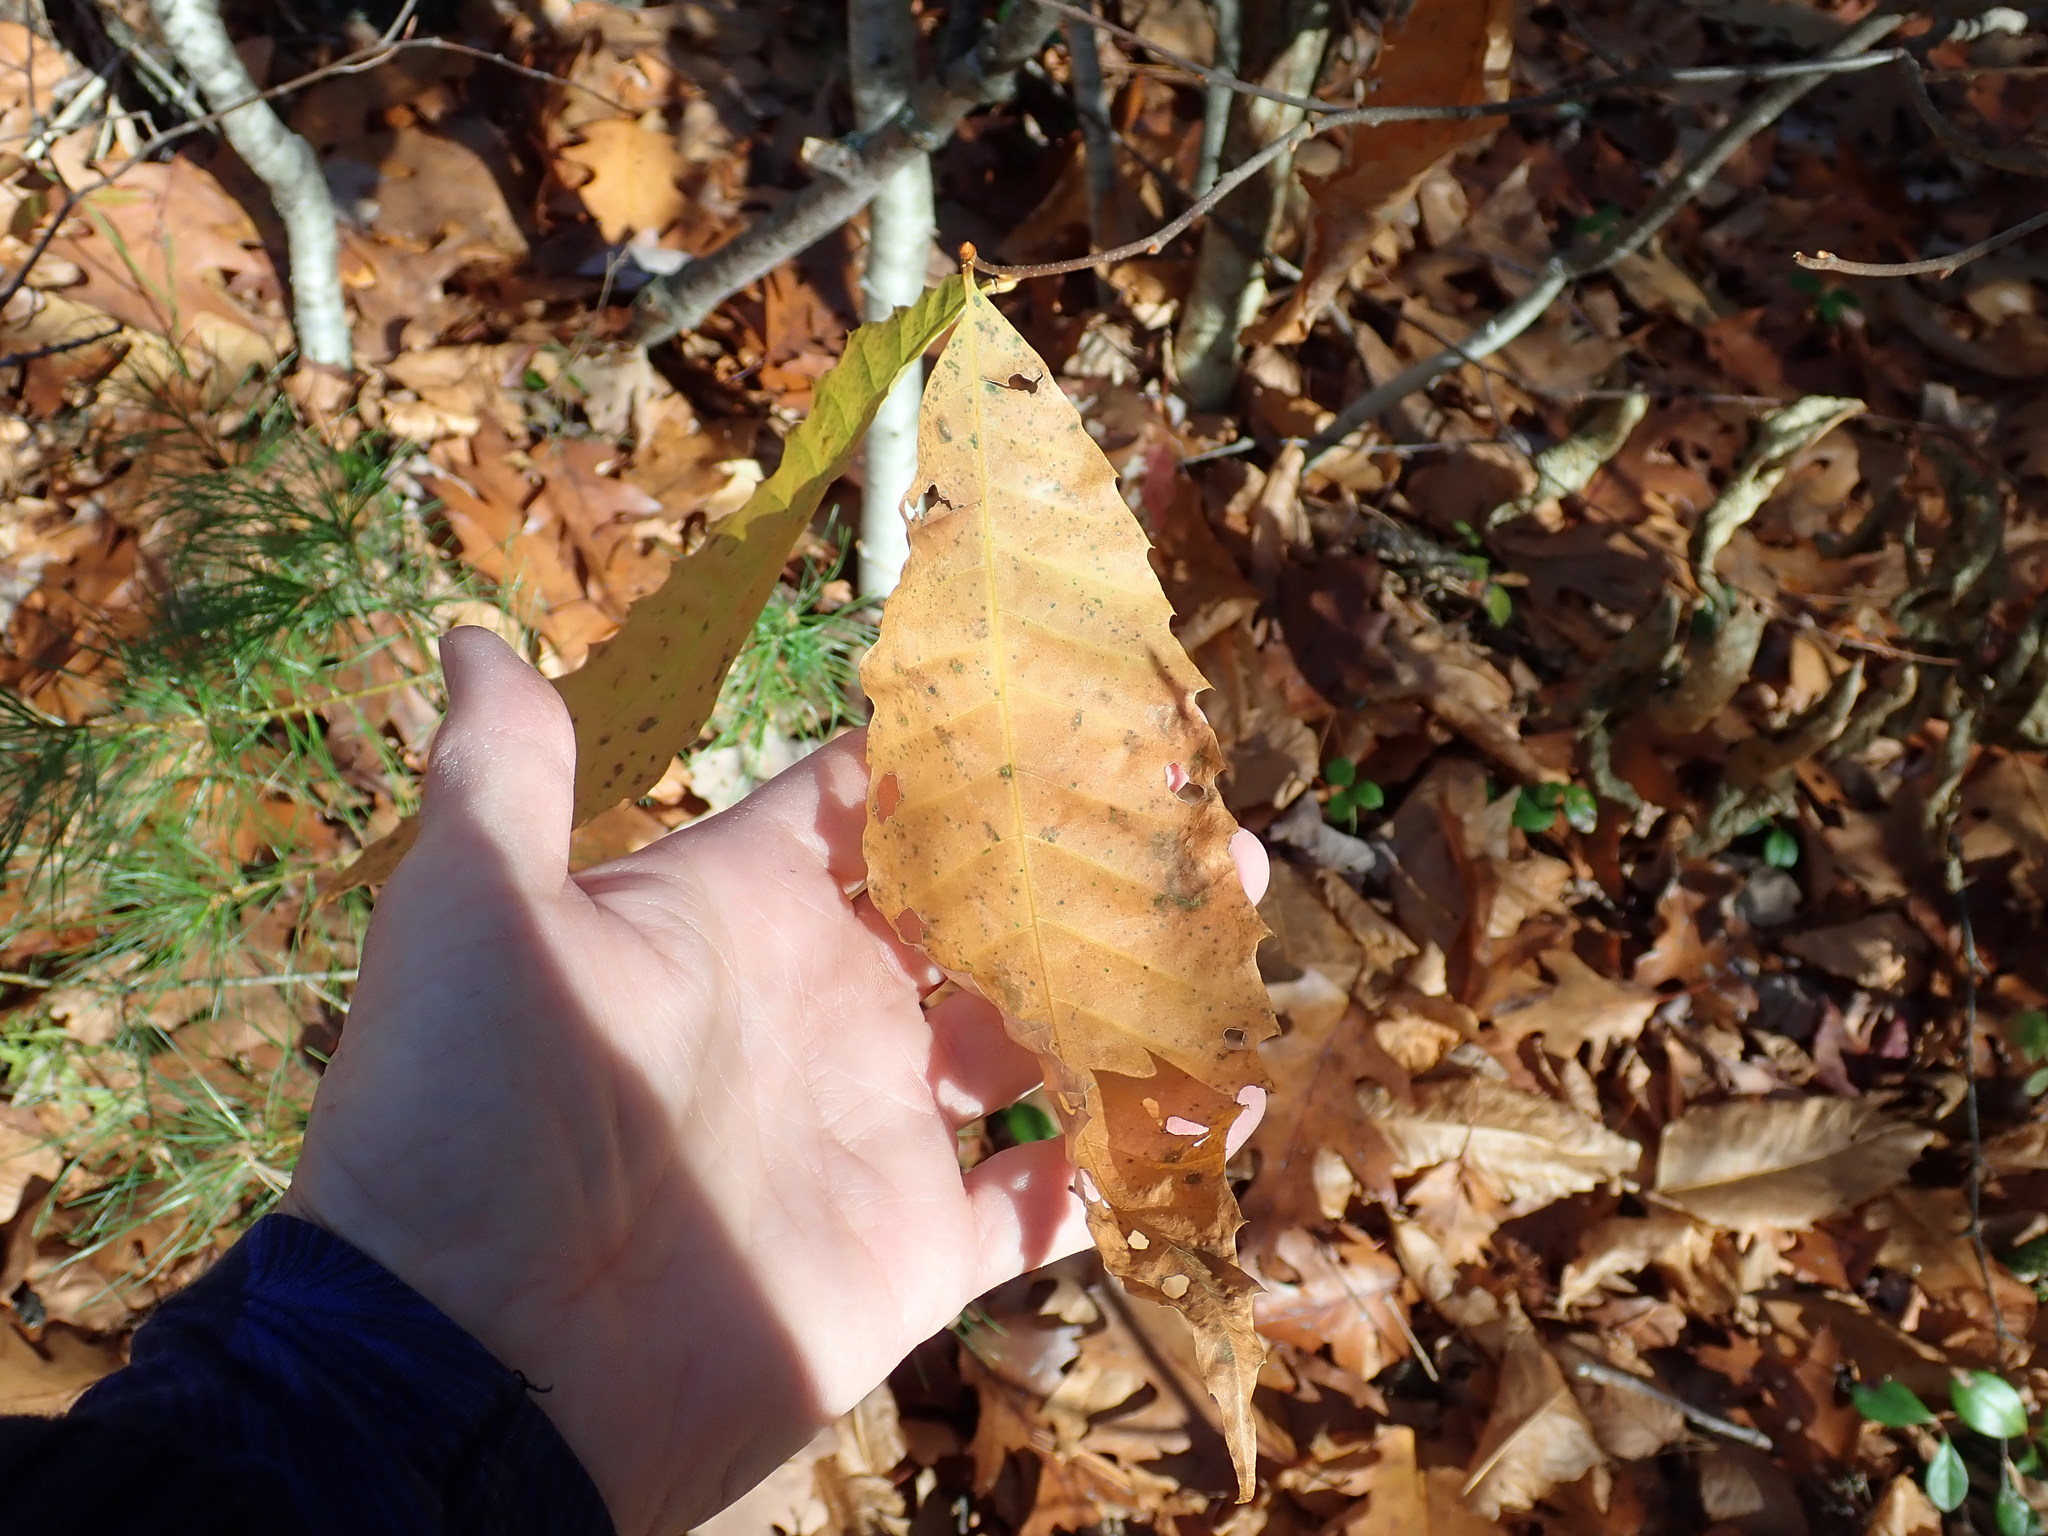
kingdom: Plantae
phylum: Tracheophyta
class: Magnoliopsida
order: Fagales
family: Fagaceae
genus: Castanea
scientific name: Castanea dentata
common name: American chestnut
